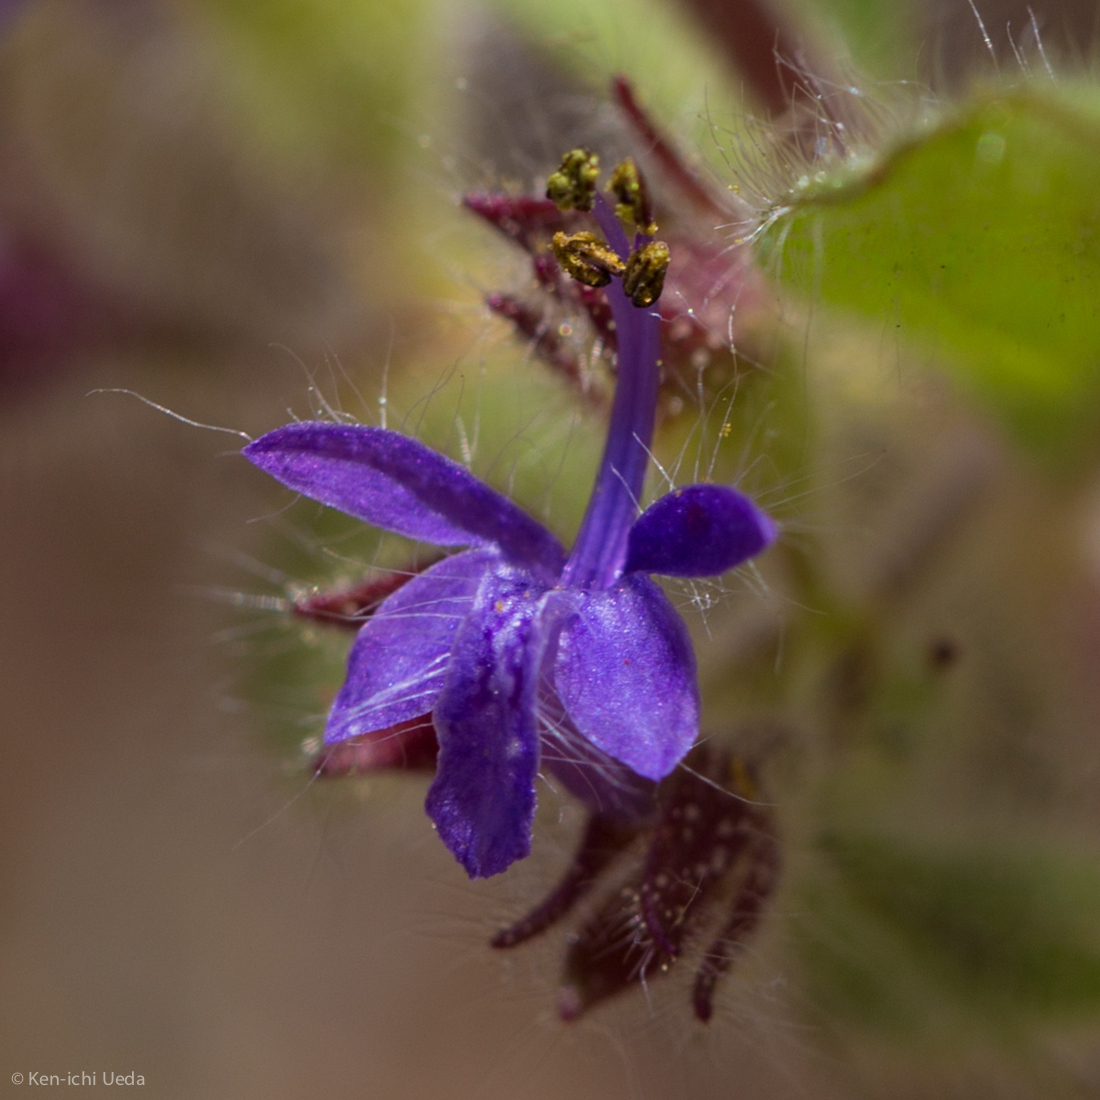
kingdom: Plantae
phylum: Tracheophyta
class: Magnoliopsida
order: Lamiales
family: Lamiaceae
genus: Trichostema
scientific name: Trichostema rubisepalum
